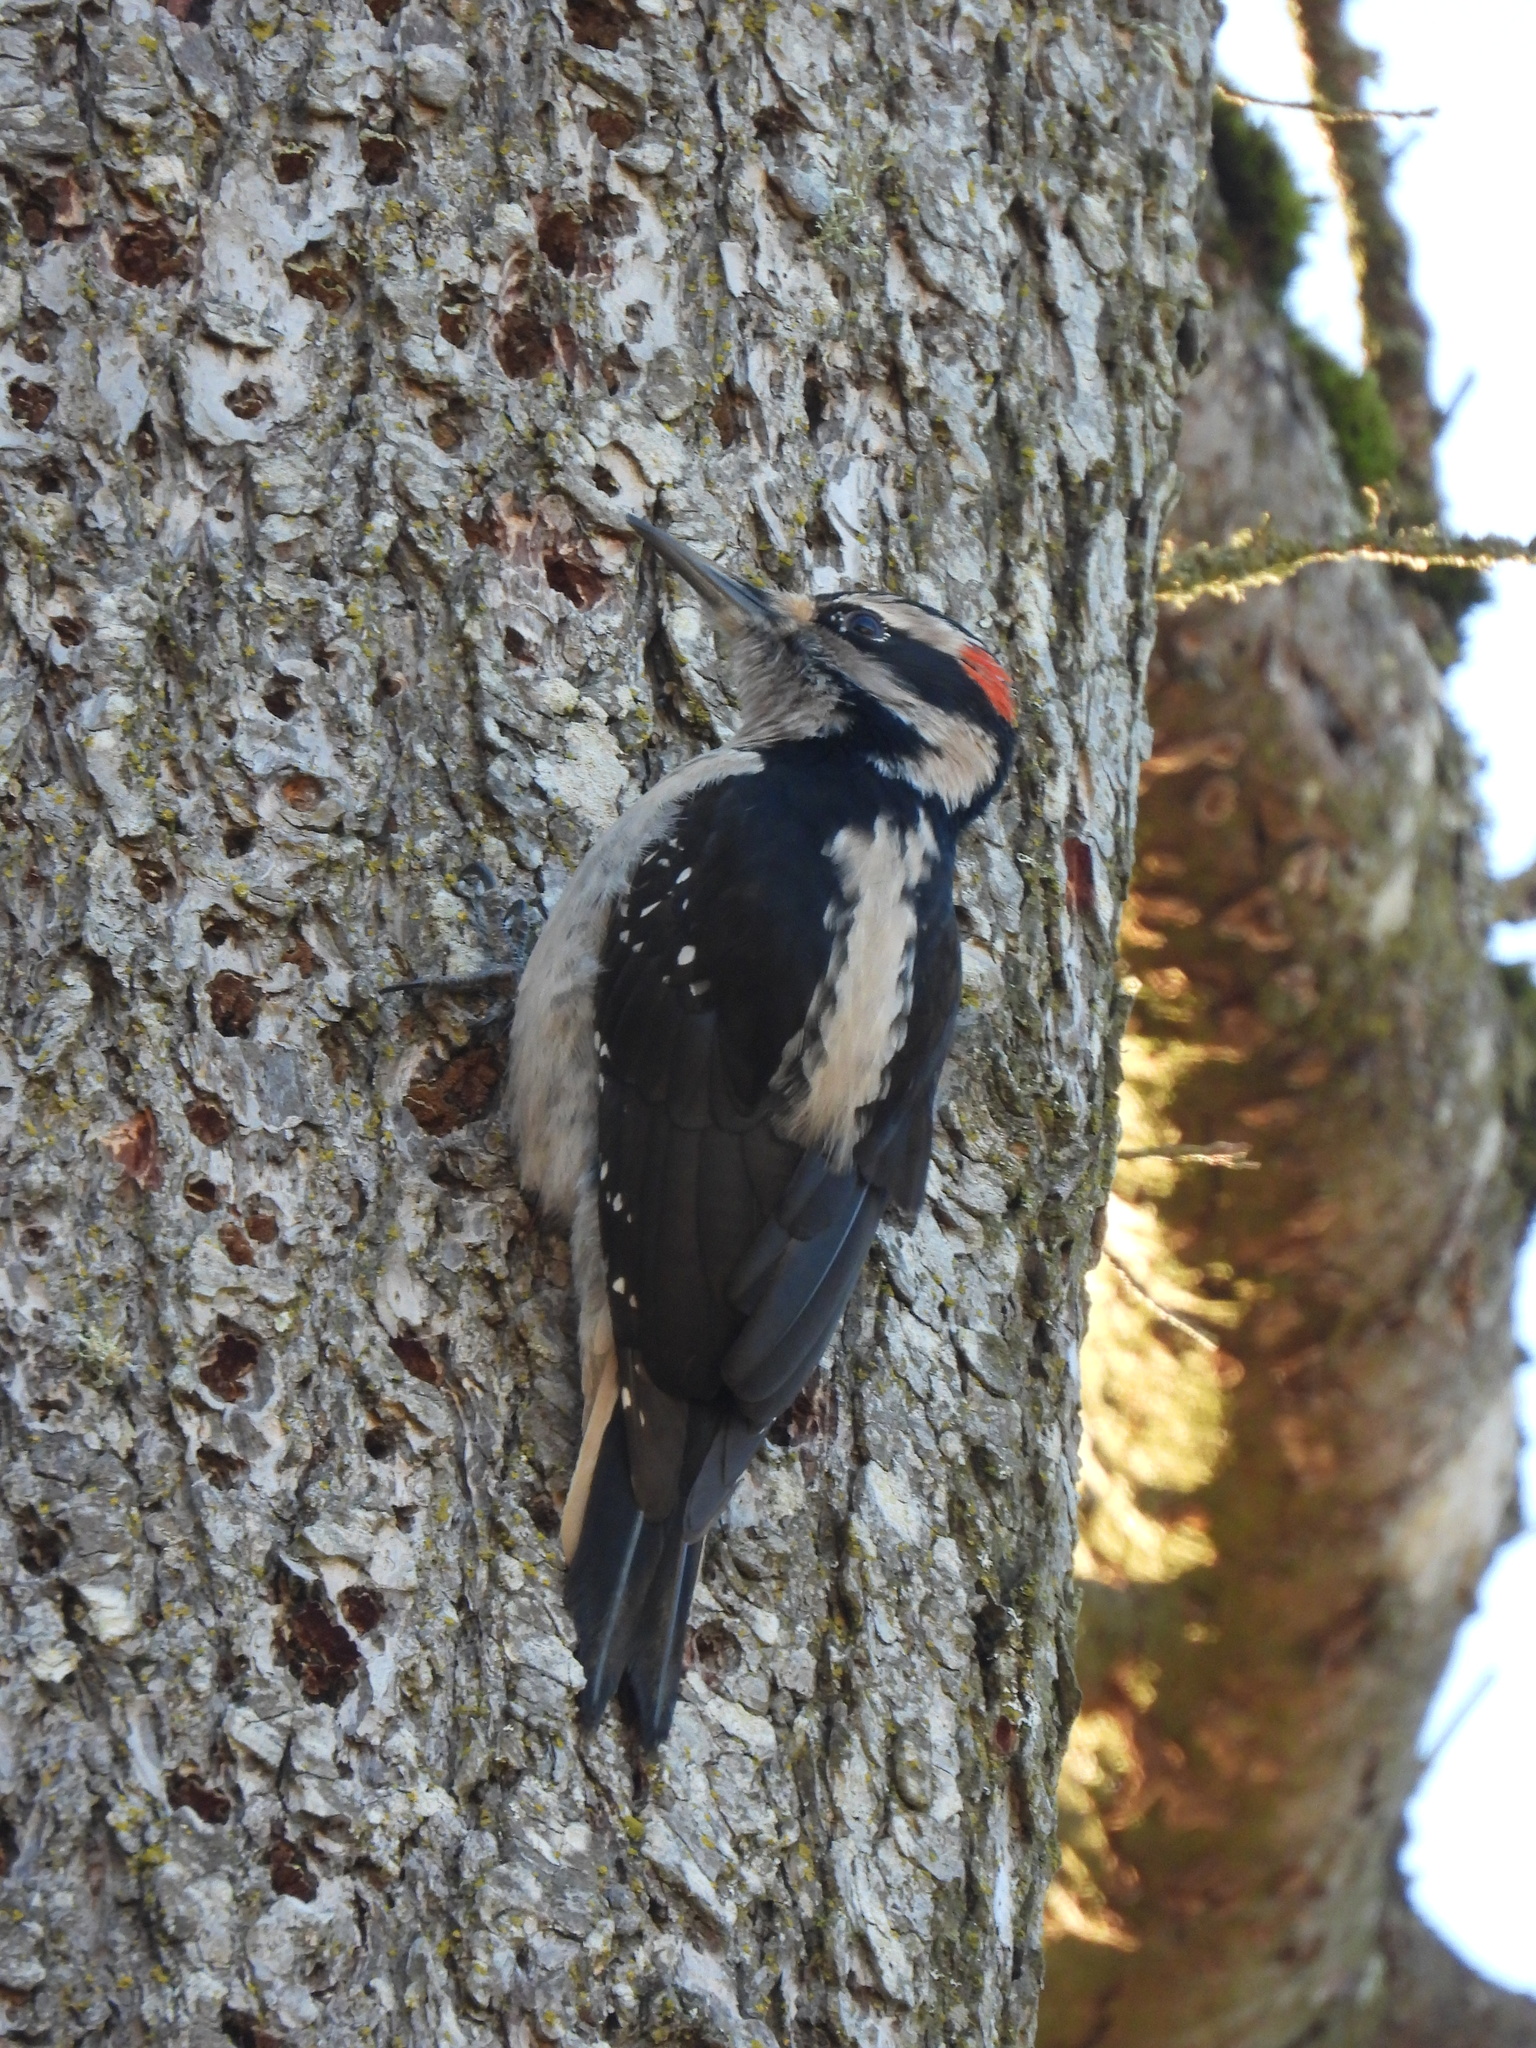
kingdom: Animalia
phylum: Chordata
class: Aves
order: Piciformes
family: Picidae
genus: Leuconotopicus
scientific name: Leuconotopicus villosus
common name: Hairy woodpecker
